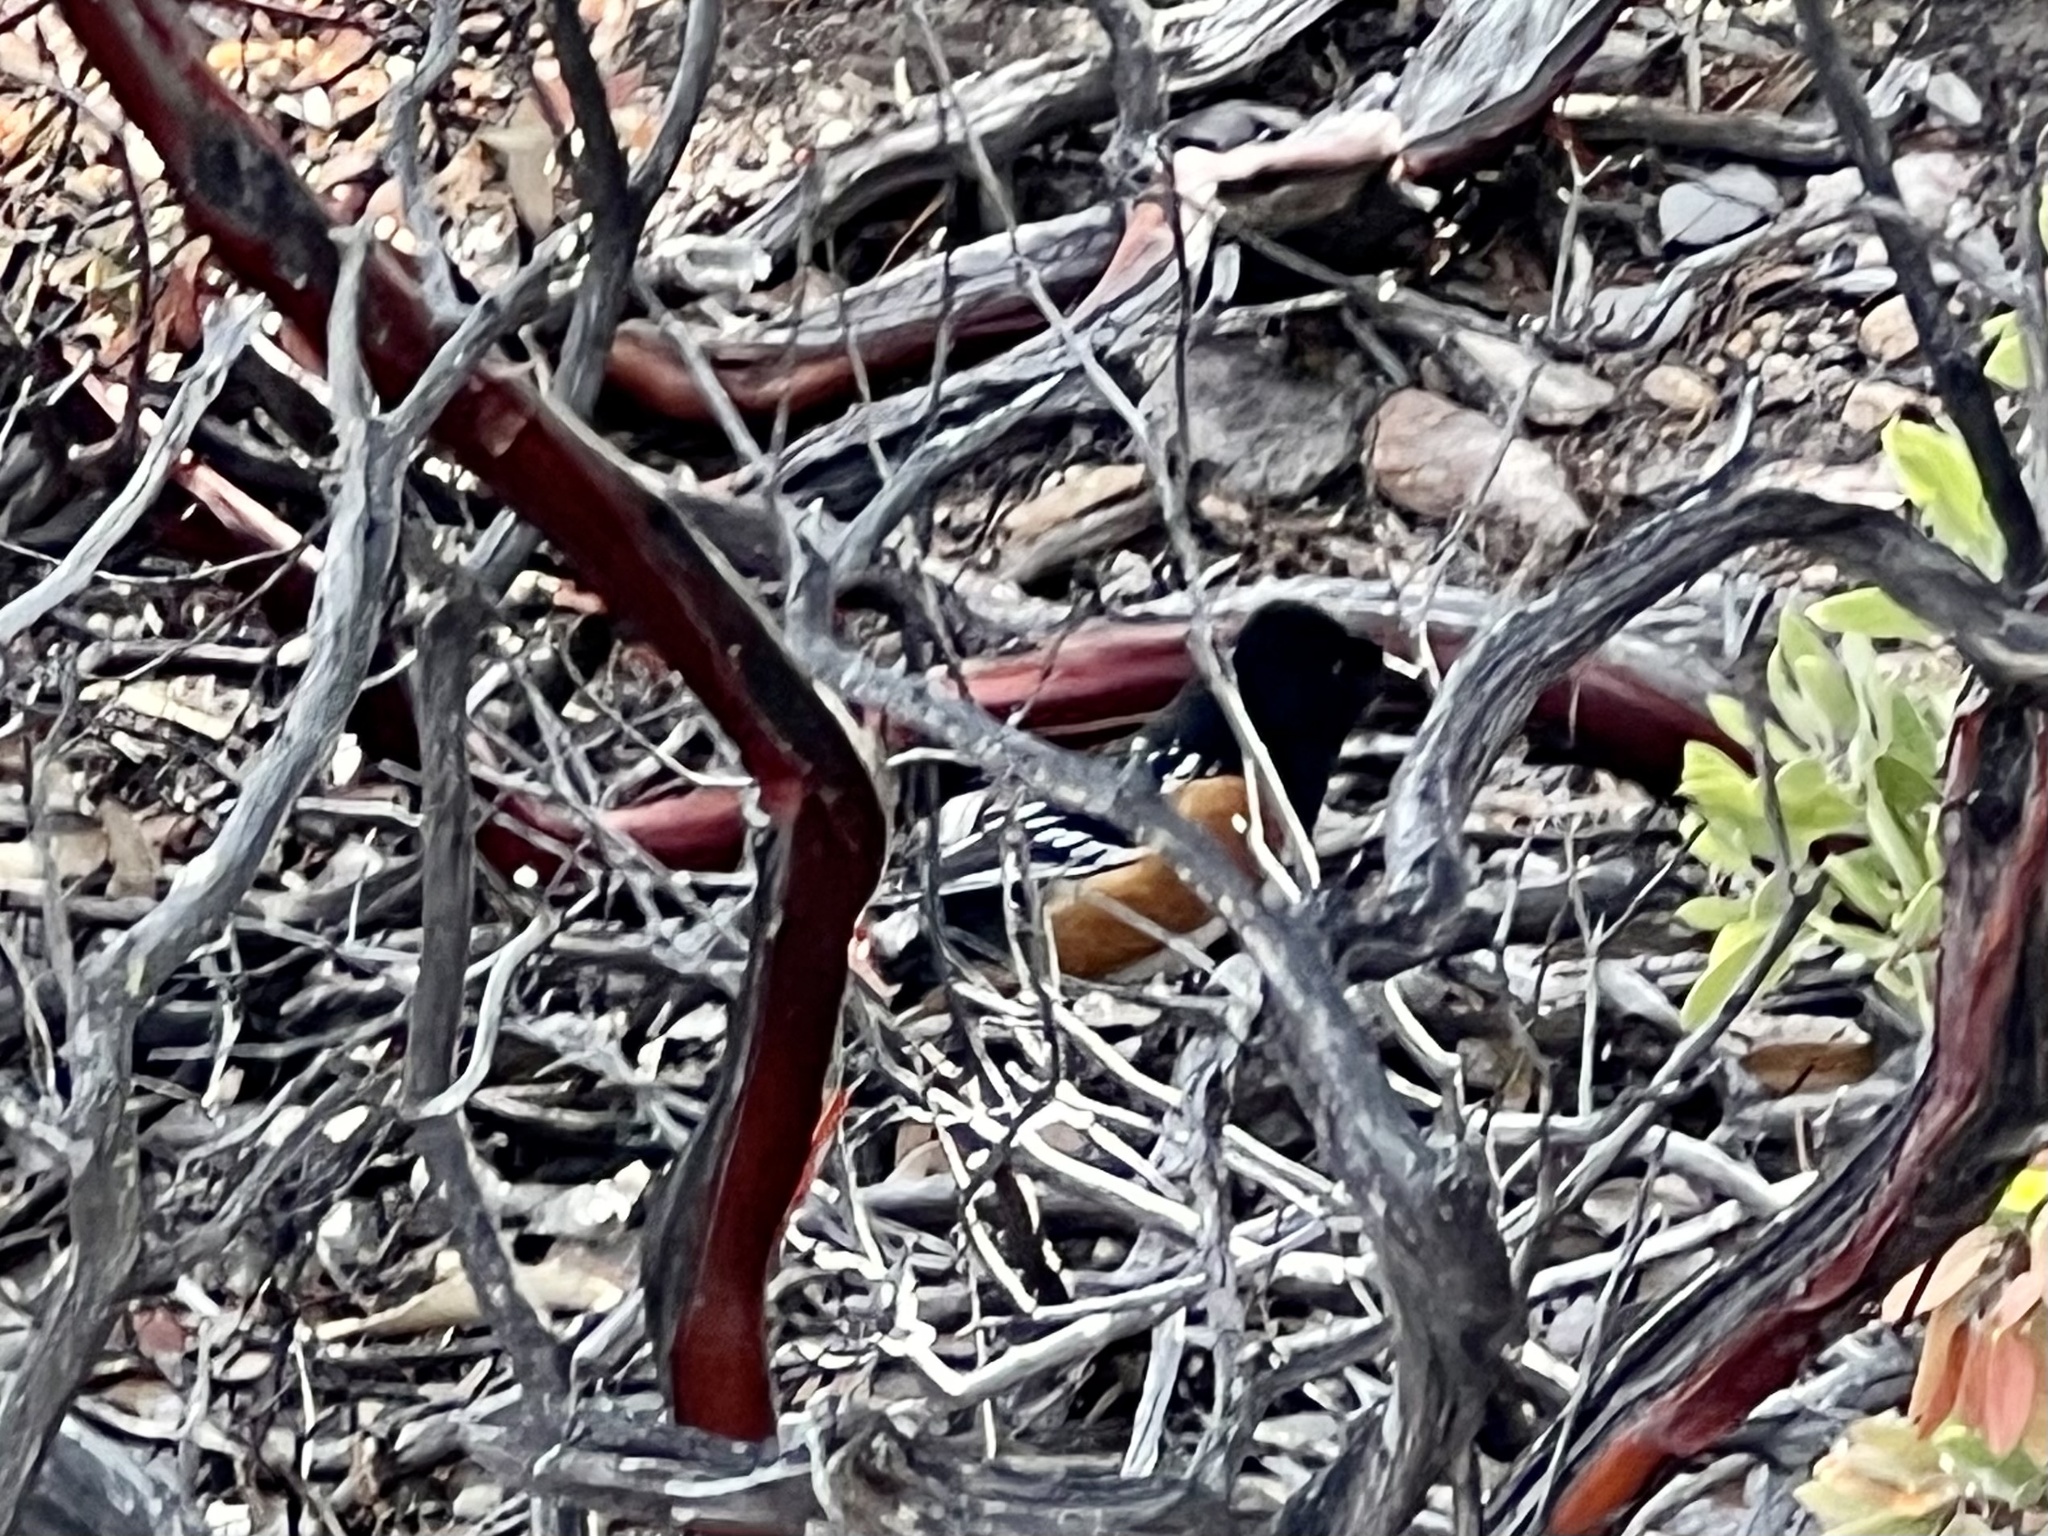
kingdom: Animalia
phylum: Chordata
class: Aves
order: Passeriformes
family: Passerellidae
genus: Pipilo
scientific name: Pipilo maculatus
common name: Spotted towhee
